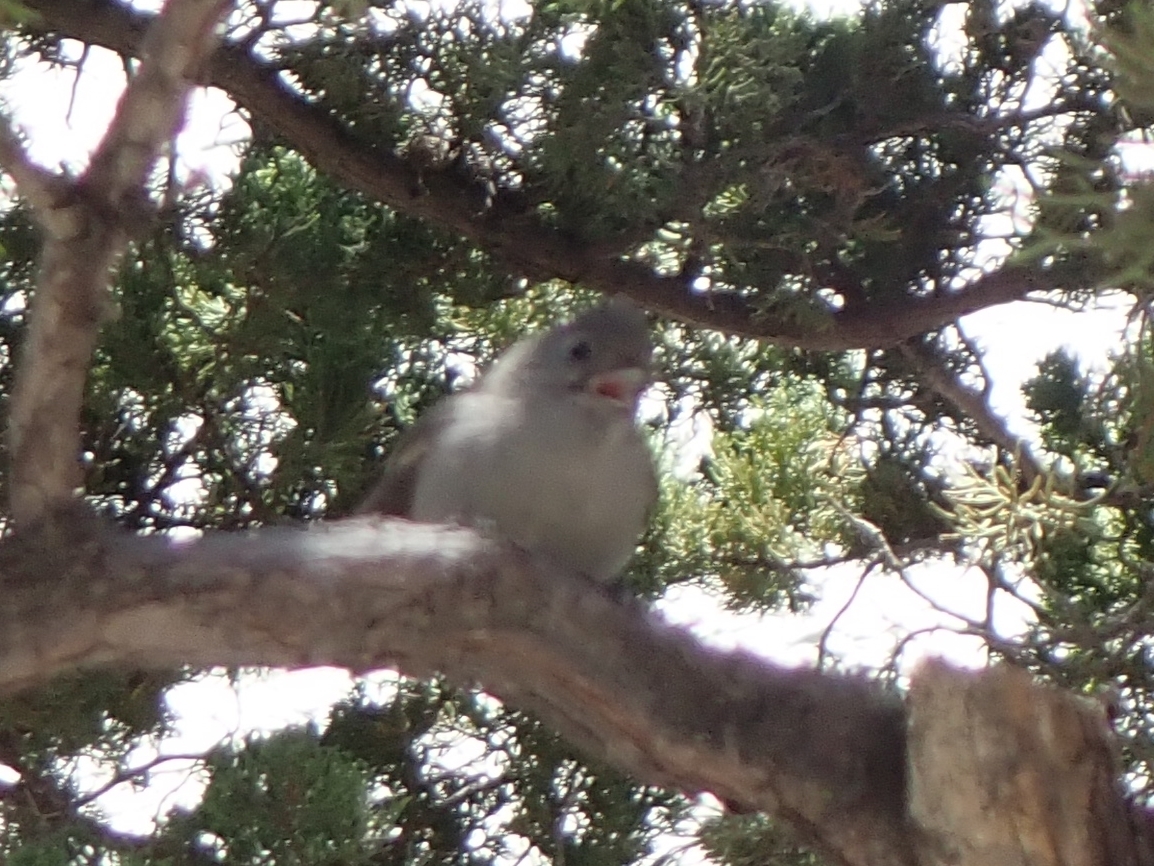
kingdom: Animalia
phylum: Chordata
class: Aves
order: Passeriformes
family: Paridae
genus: Baeolophus
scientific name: Baeolophus inornatus
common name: Oak titmouse
